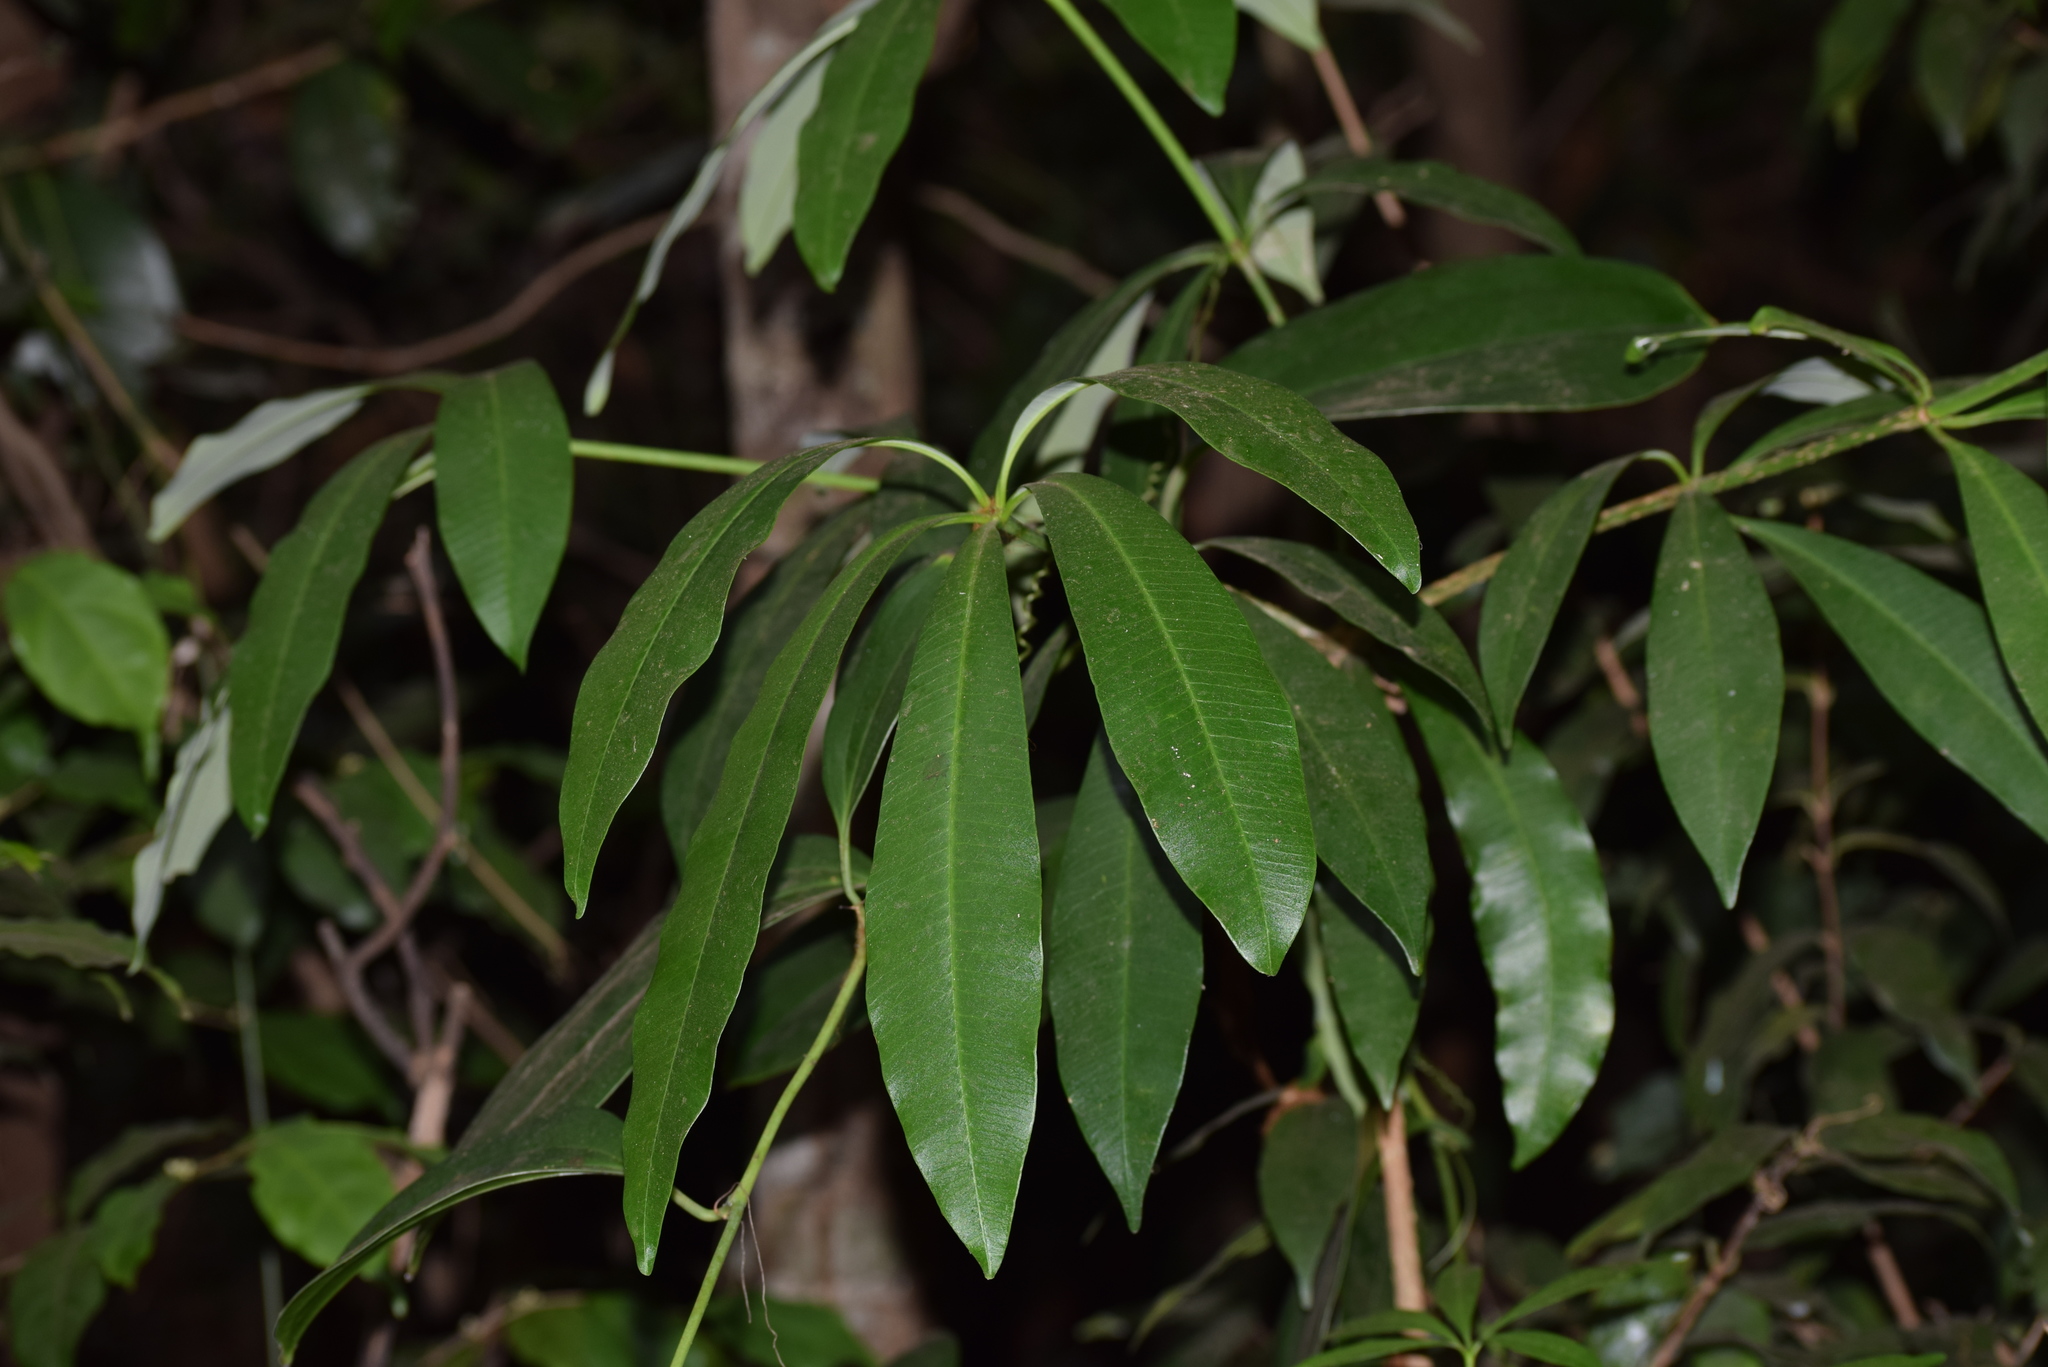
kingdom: Plantae
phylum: Tracheophyta
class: Magnoliopsida
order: Gentianales
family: Apocynaceae
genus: Alstonia
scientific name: Alstonia scholaris
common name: White cheesewood
